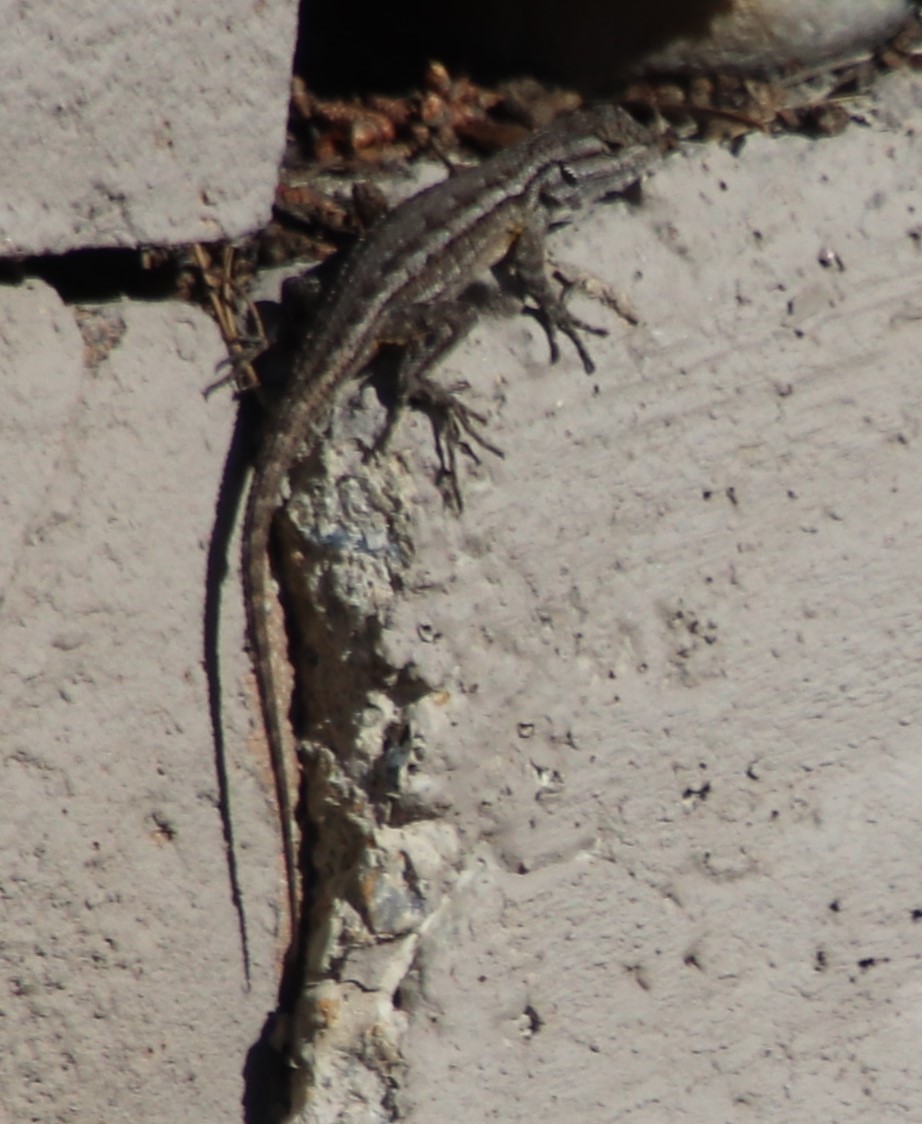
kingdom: Animalia
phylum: Chordata
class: Squamata
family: Phrynosomatidae
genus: Sceloporus
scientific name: Sceloporus occidentalis
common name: Western fence lizard
